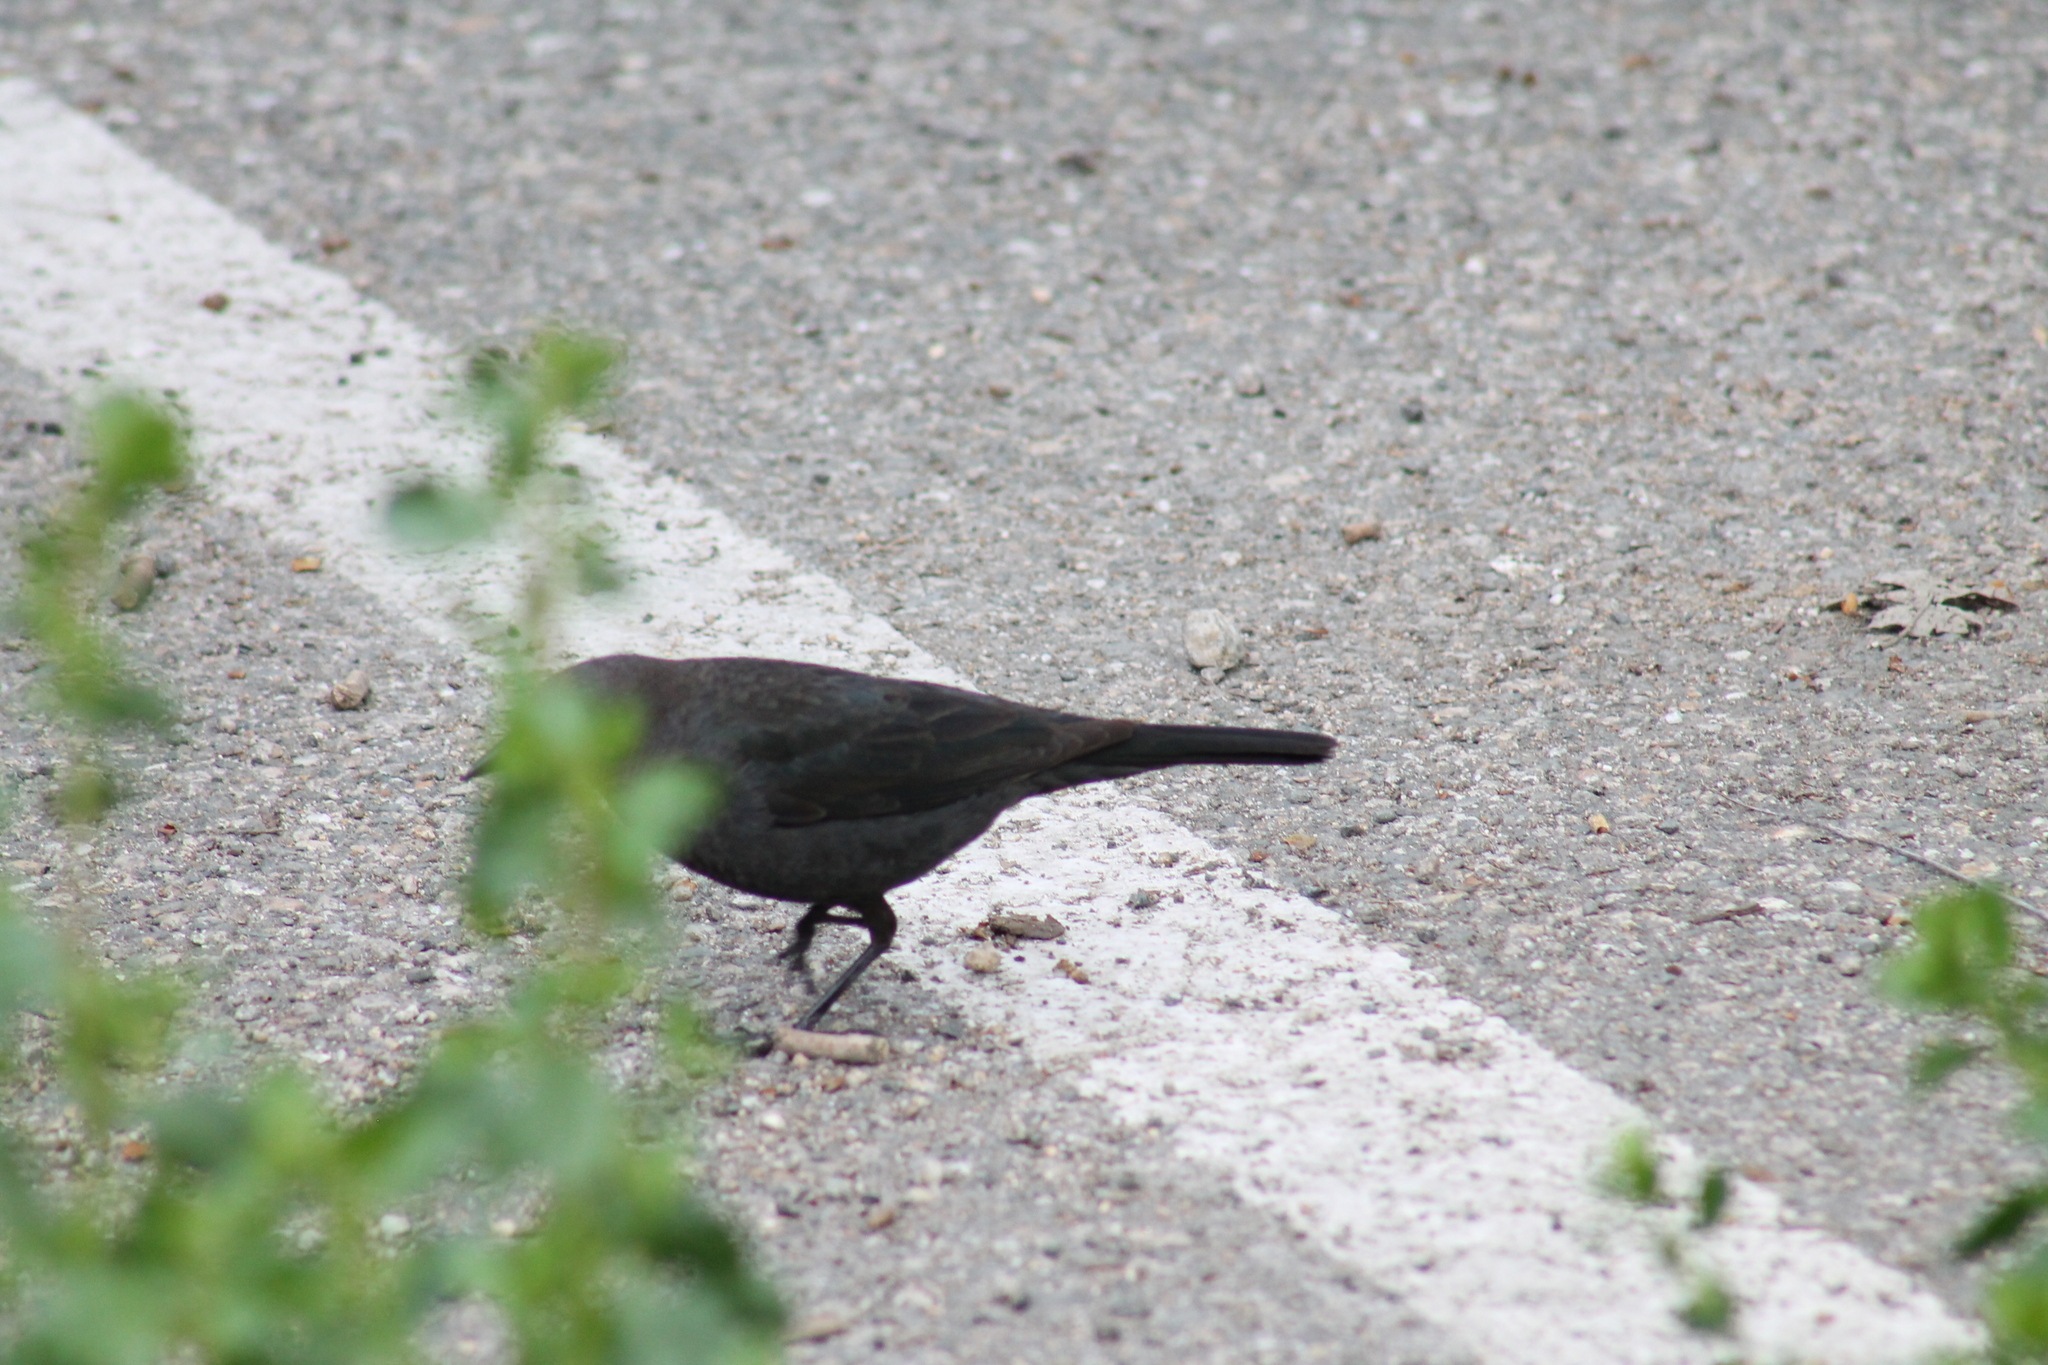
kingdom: Animalia
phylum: Chordata
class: Aves
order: Passeriformes
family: Icteridae
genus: Euphagus
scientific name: Euphagus cyanocephalus
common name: Brewer's blackbird
